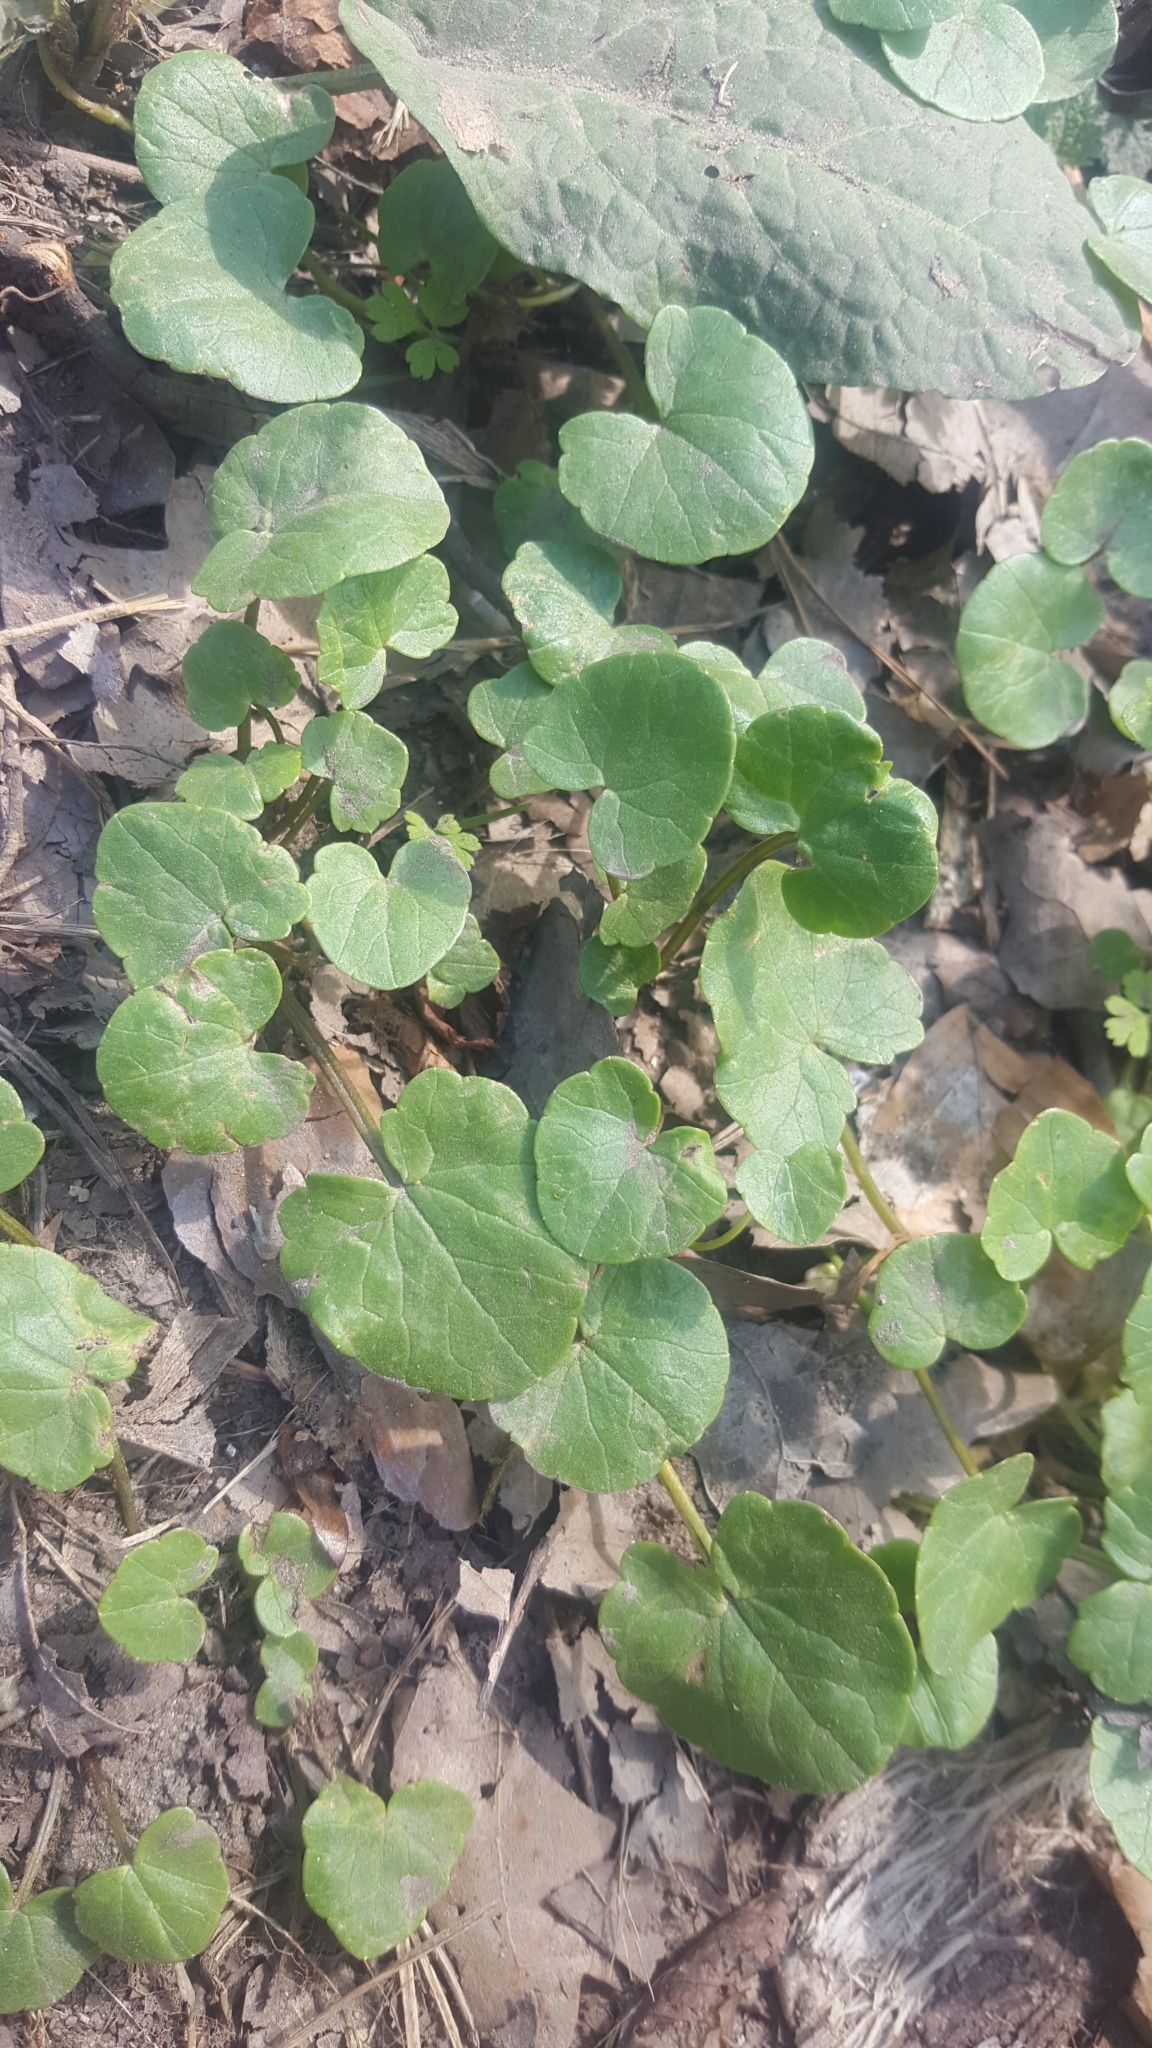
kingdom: Plantae
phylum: Tracheophyta
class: Magnoliopsida
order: Ranunculales
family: Ranunculaceae
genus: Ficaria
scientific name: Ficaria verna
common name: Lesser celandine
